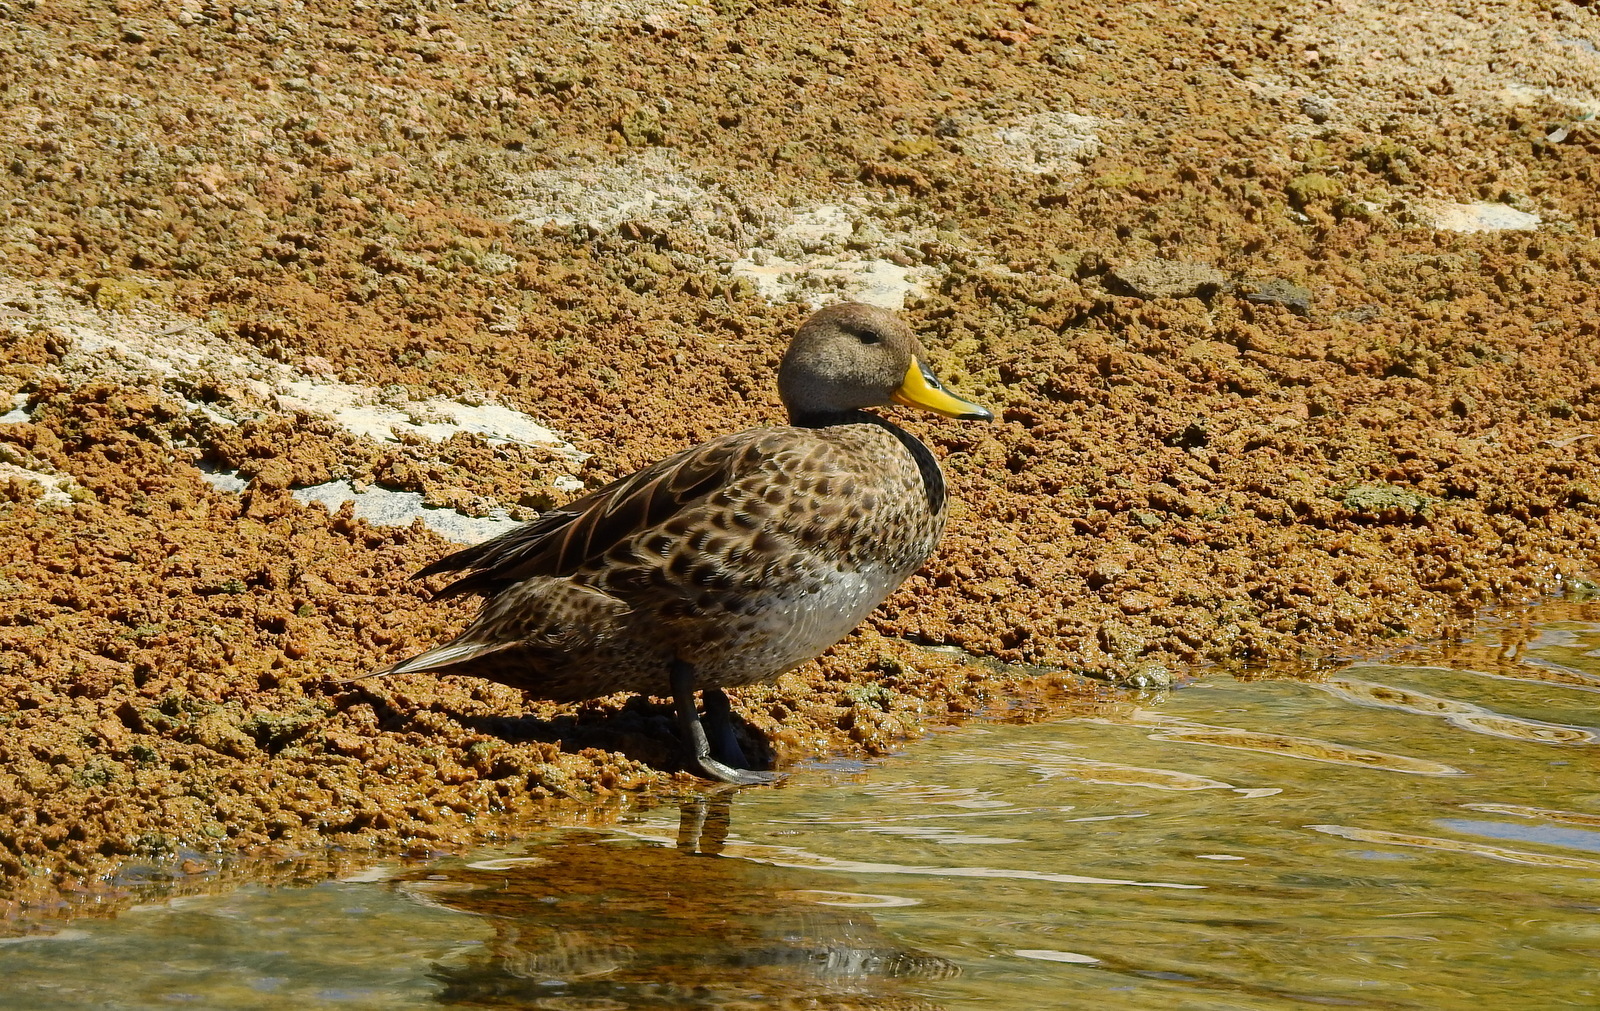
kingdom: Animalia
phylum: Chordata
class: Aves
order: Anseriformes
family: Anatidae
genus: Anas
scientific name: Anas georgica
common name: Yellow-billed pintail
